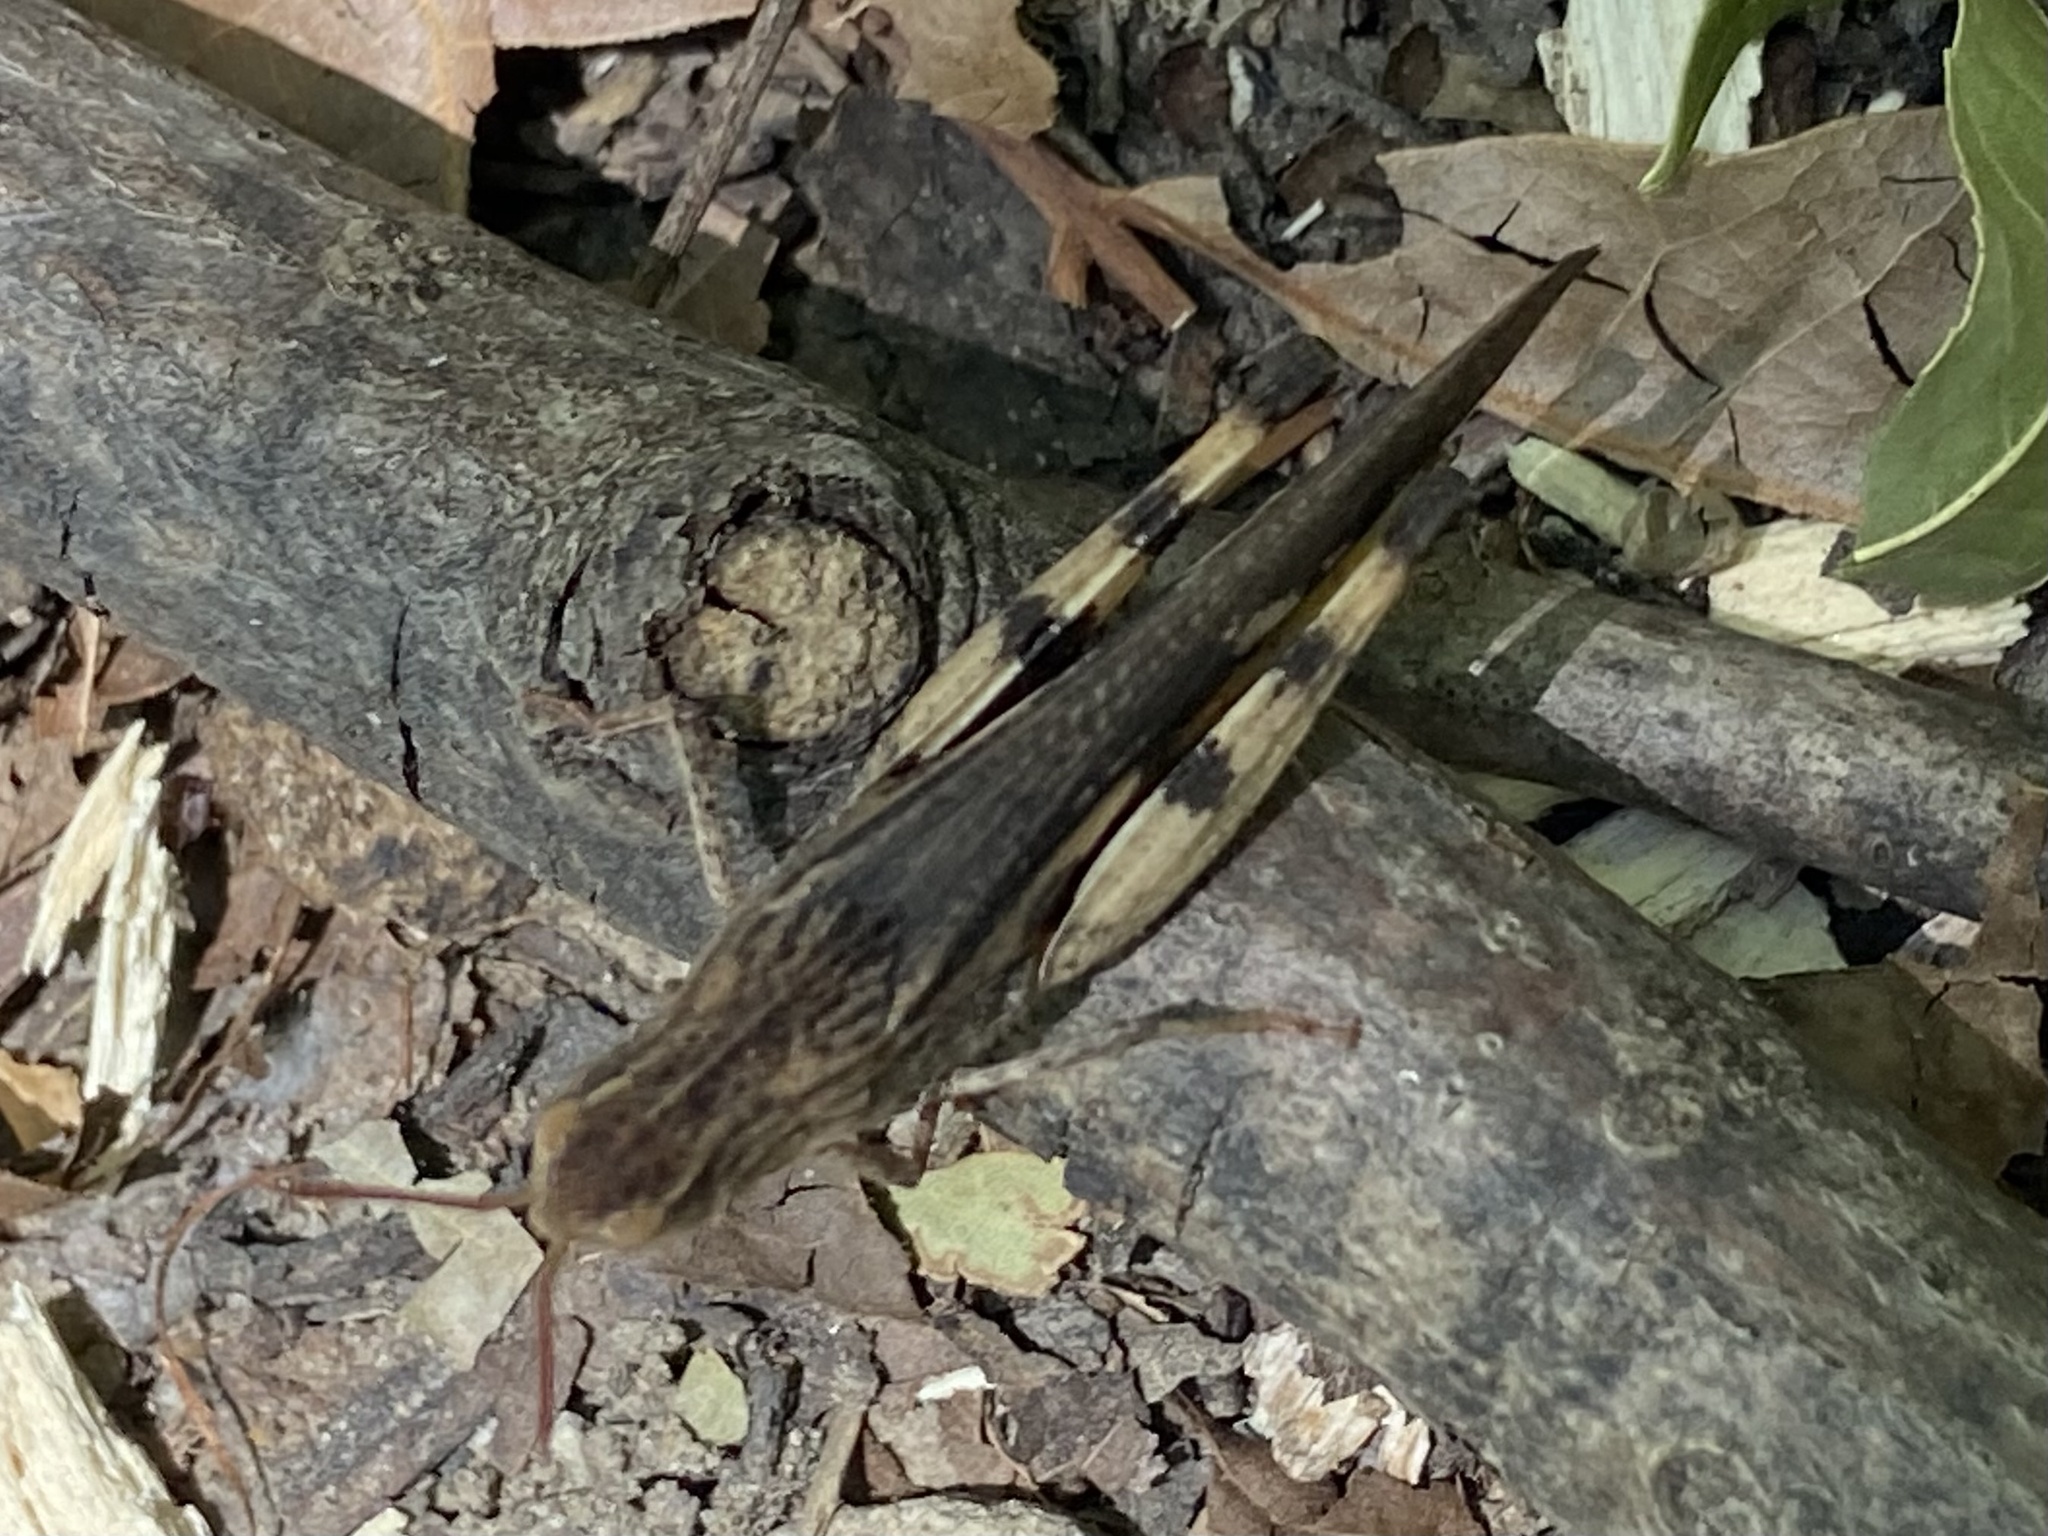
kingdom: Animalia
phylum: Arthropoda
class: Insecta
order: Orthoptera
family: Acrididae
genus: Chortophaga
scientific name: Chortophaga viridifasciata
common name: Green-striped grasshopper
